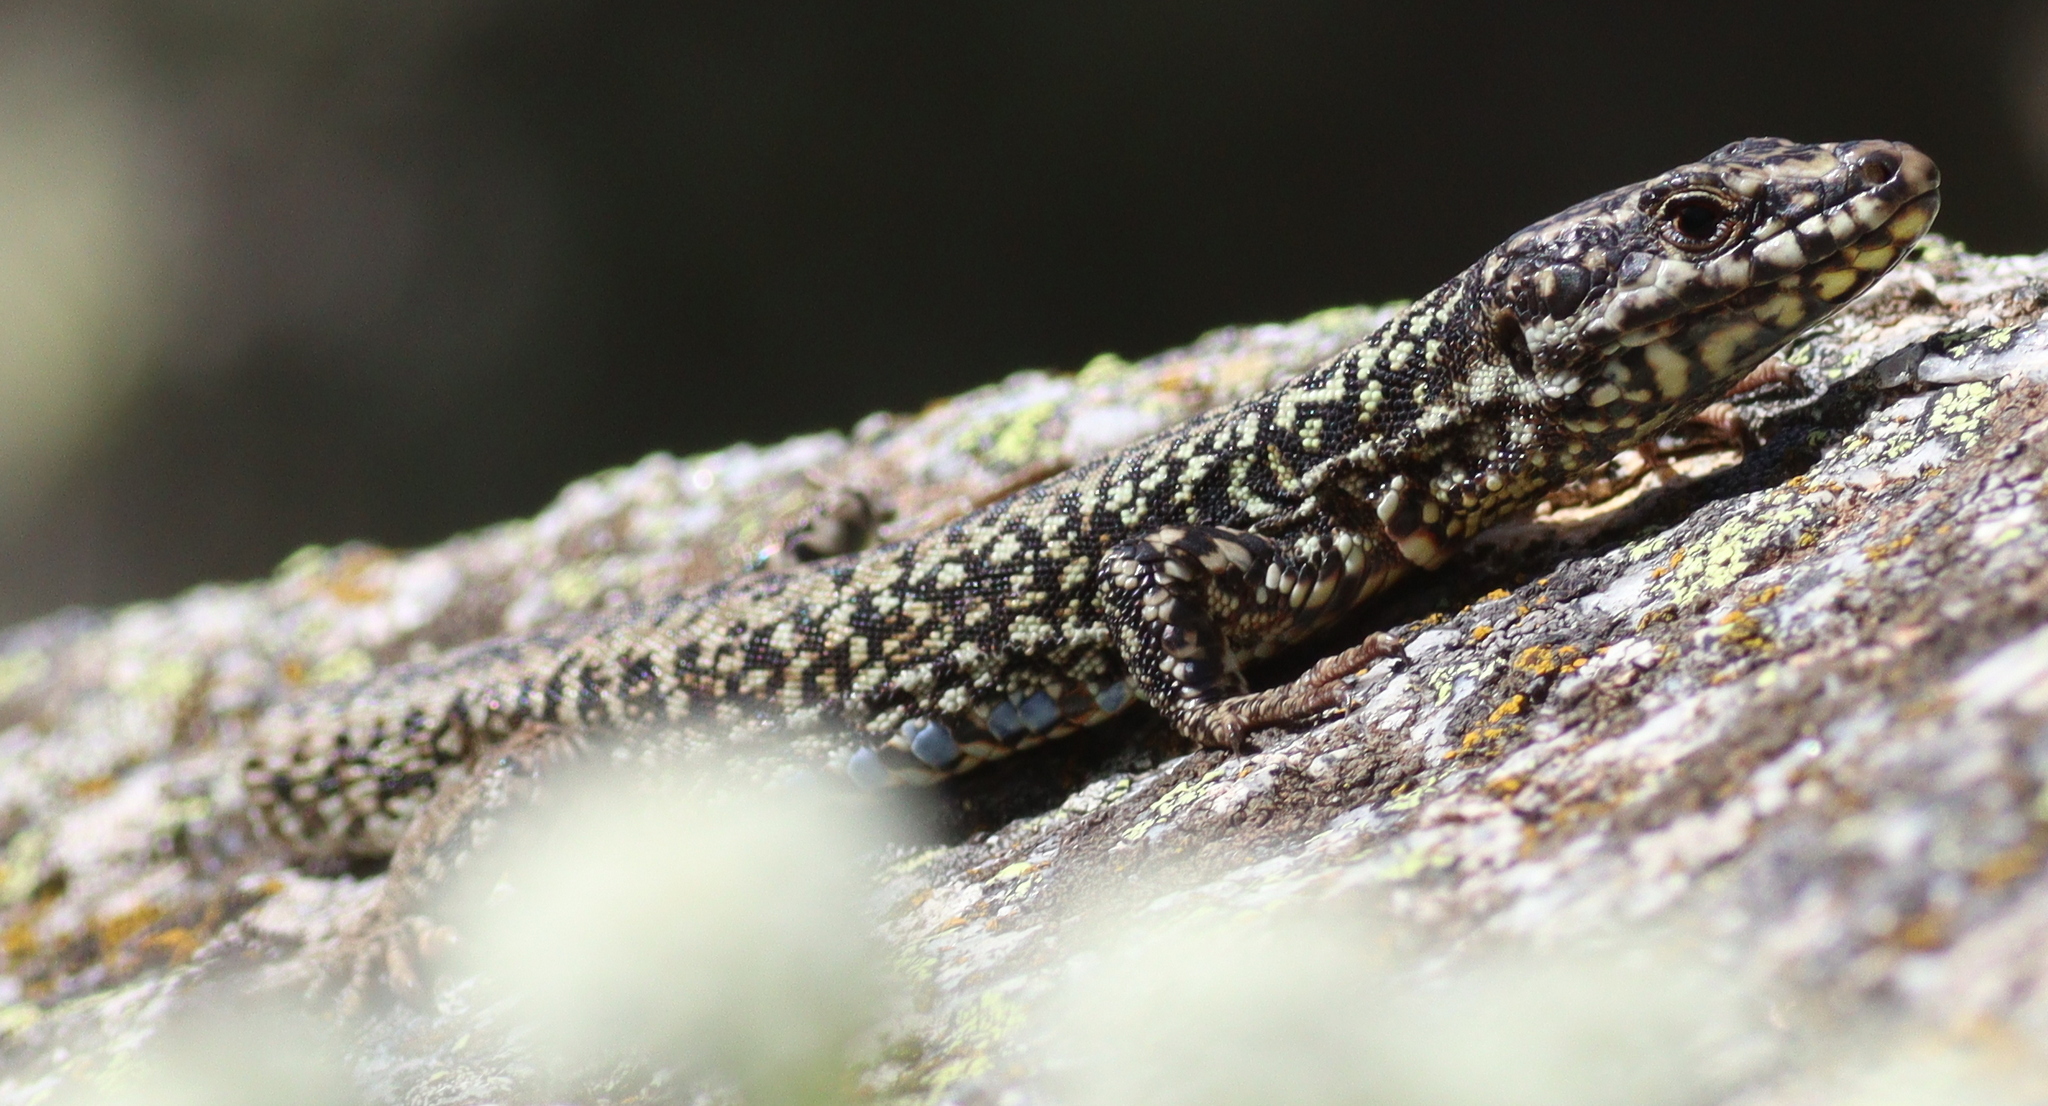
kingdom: Animalia
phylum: Chordata
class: Squamata
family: Lacertidae
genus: Podarcis
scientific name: Podarcis muralis
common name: Common wall lizard
